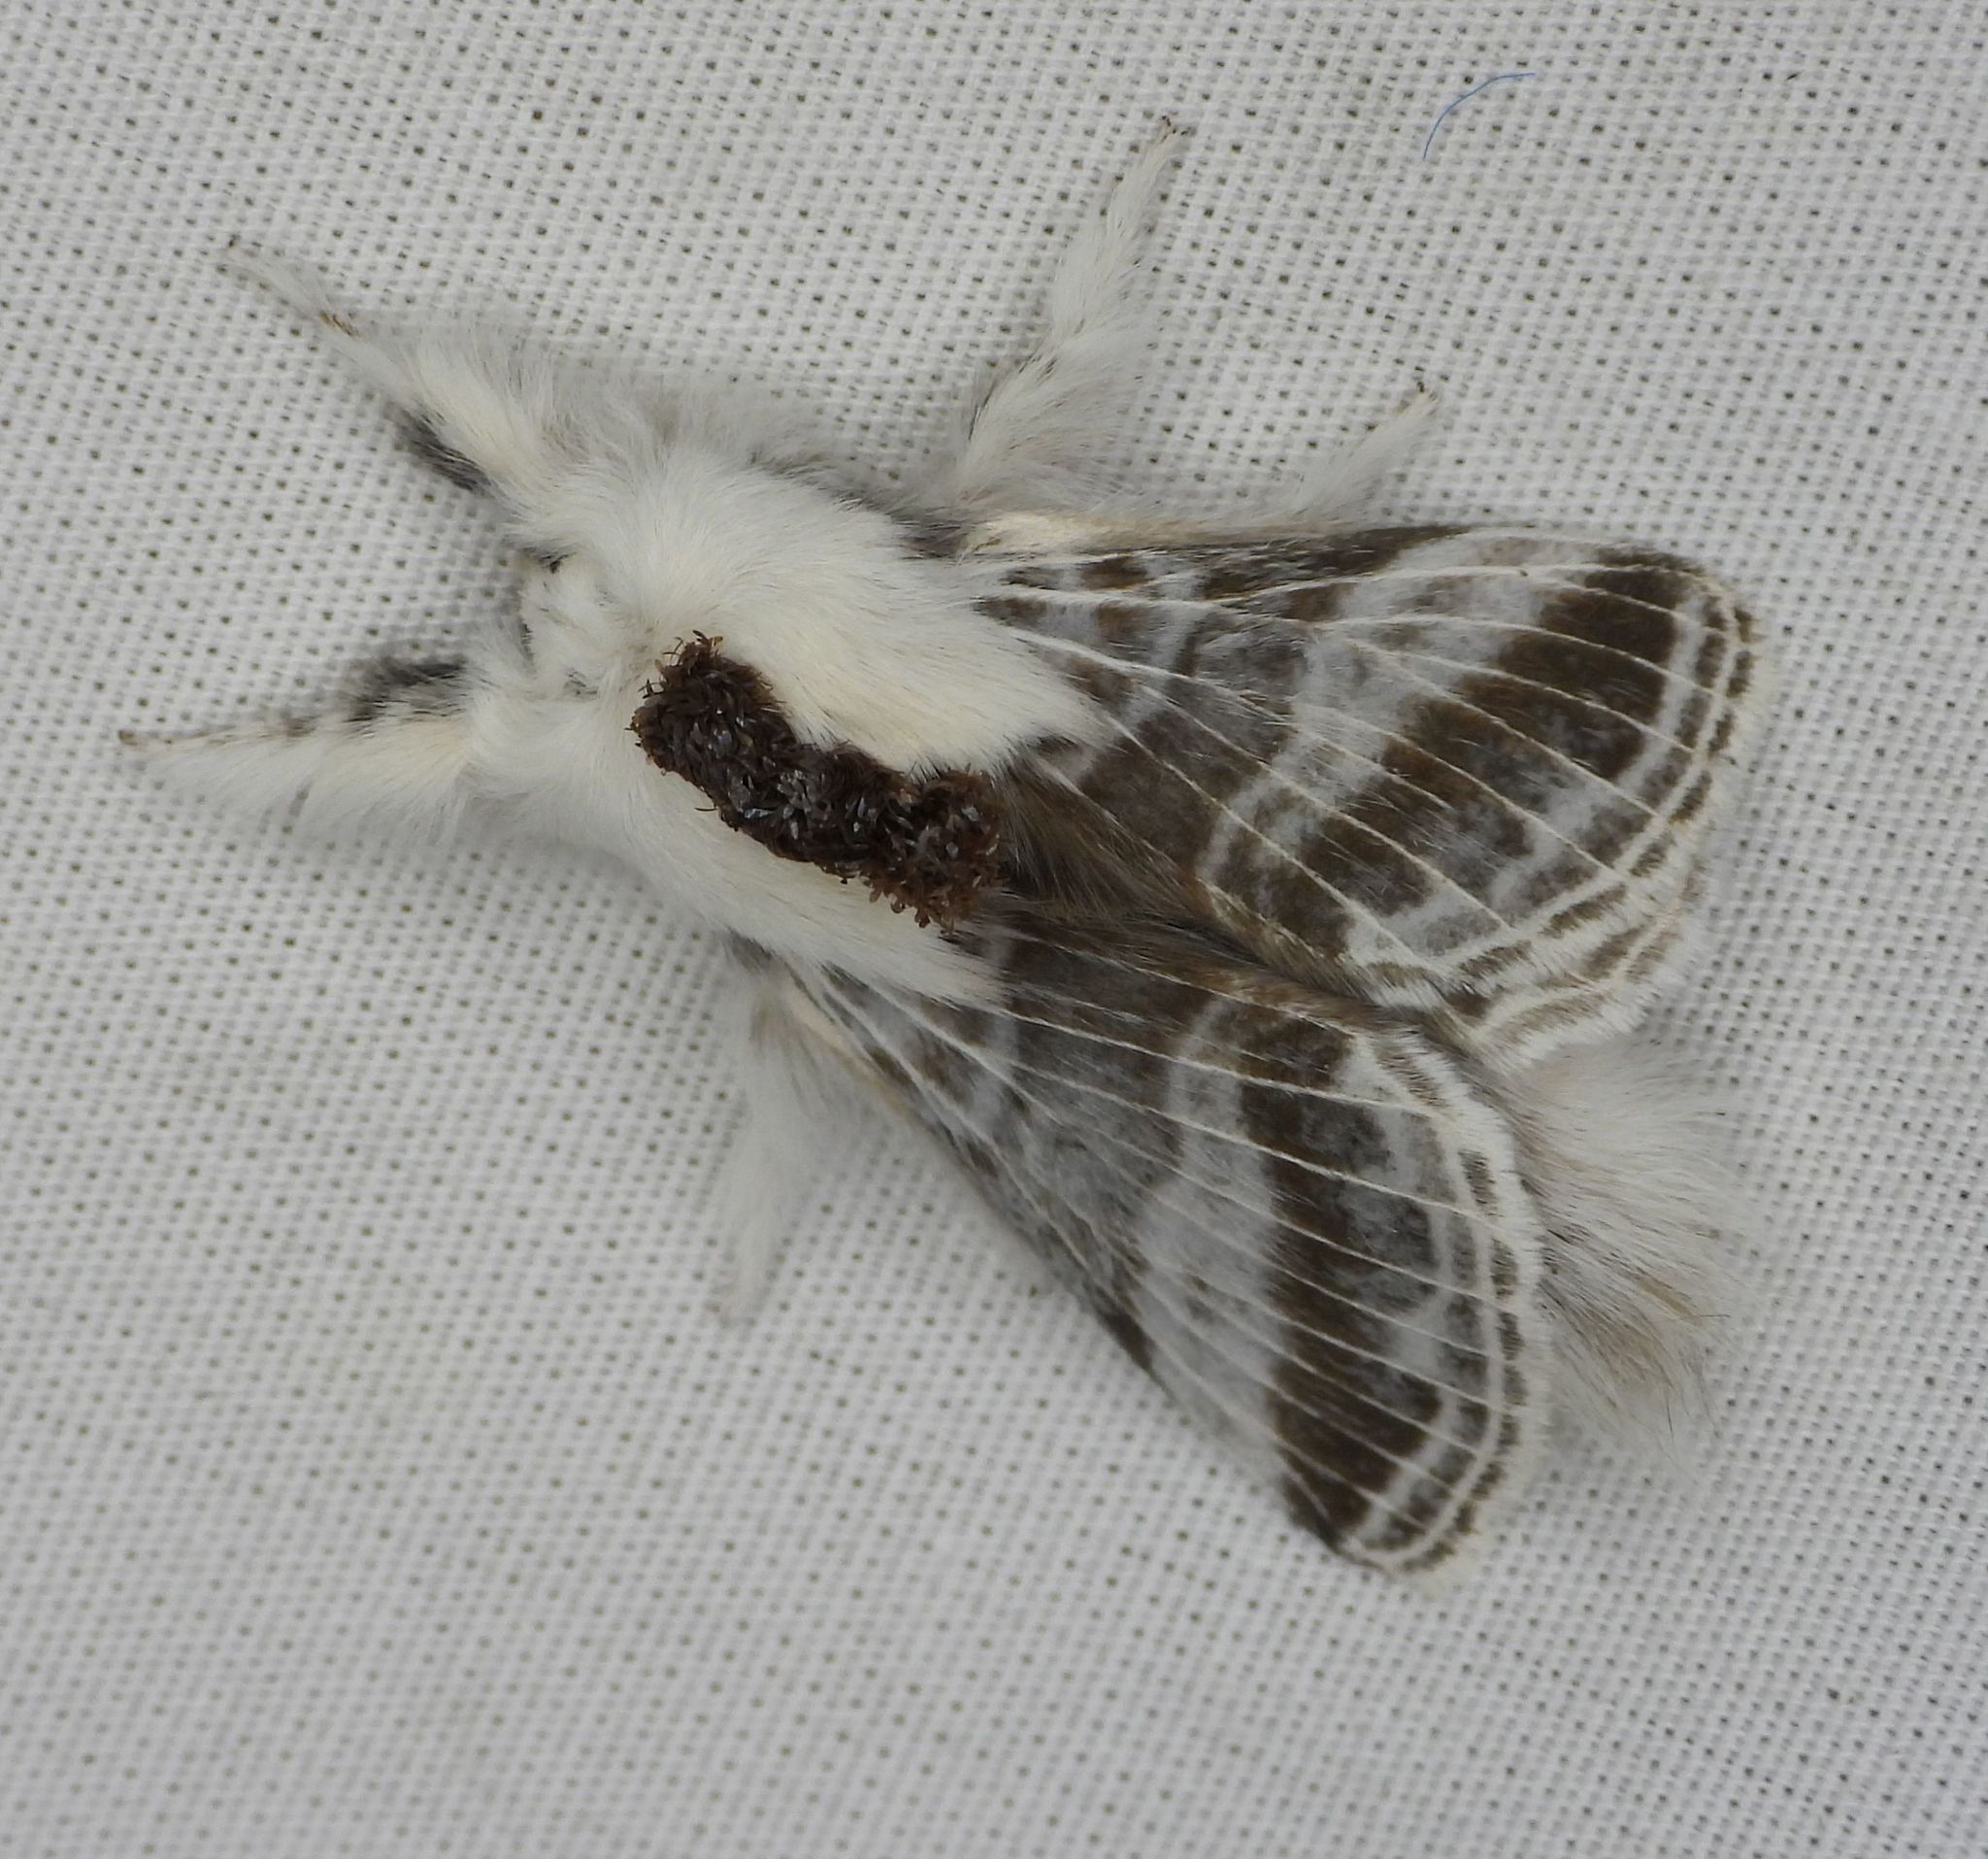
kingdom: Animalia
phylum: Arthropoda
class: Insecta
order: Lepidoptera
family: Lasiocampidae
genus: Tolype
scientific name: Tolype velleda
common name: Large tolype moth
